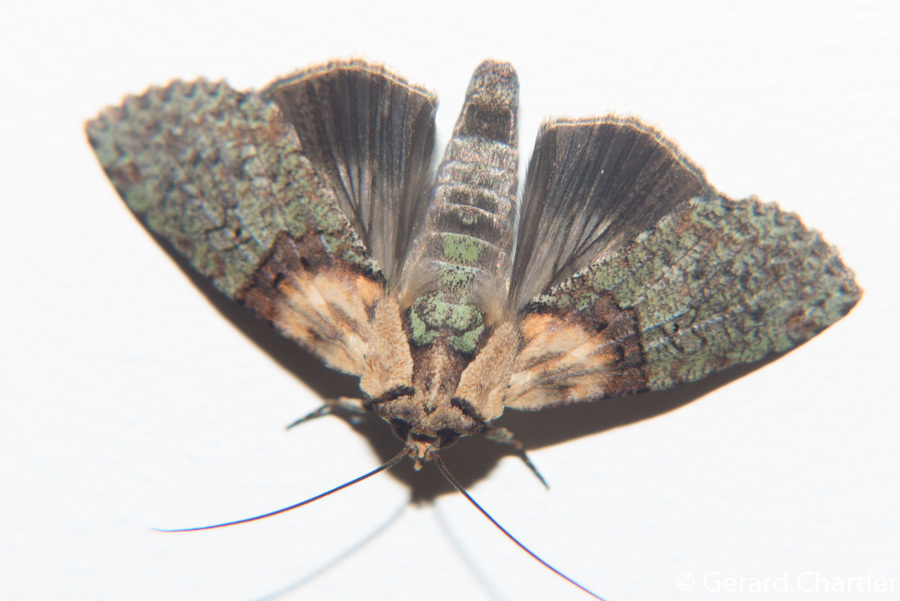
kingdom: Animalia
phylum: Arthropoda
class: Insecta
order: Lepidoptera
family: Euteliidae
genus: Stictoptera
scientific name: Stictoptera columba
